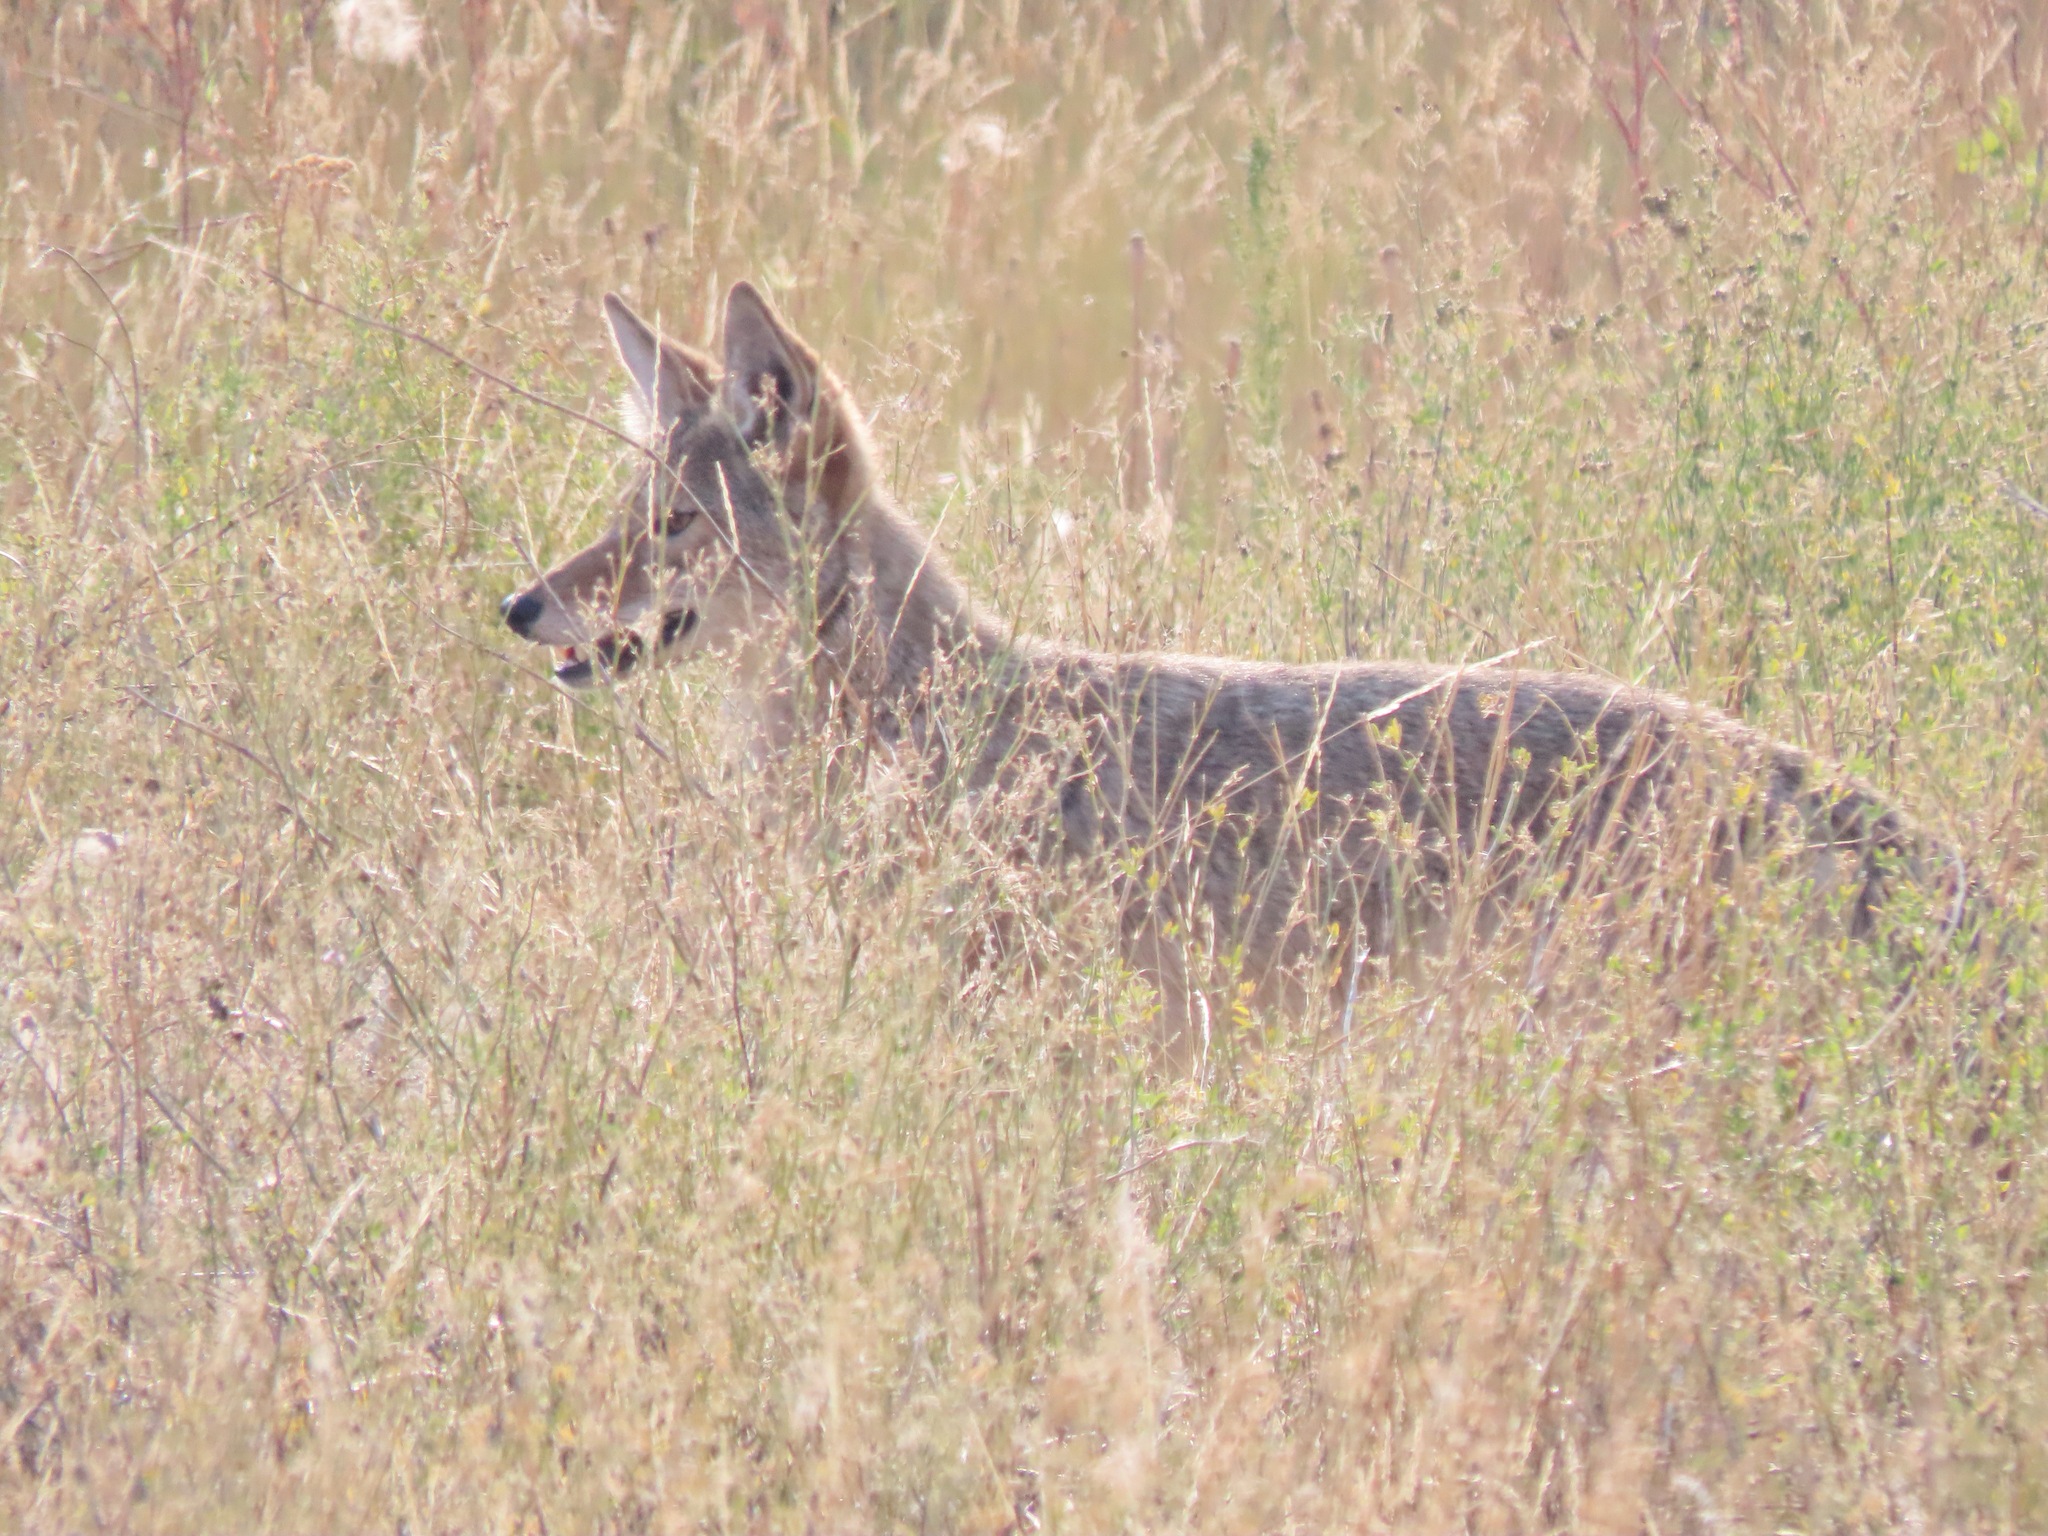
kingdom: Animalia
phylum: Chordata
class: Mammalia
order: Carnivora
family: Canidae
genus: Canis
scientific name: Canis latrans
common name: Coyote
